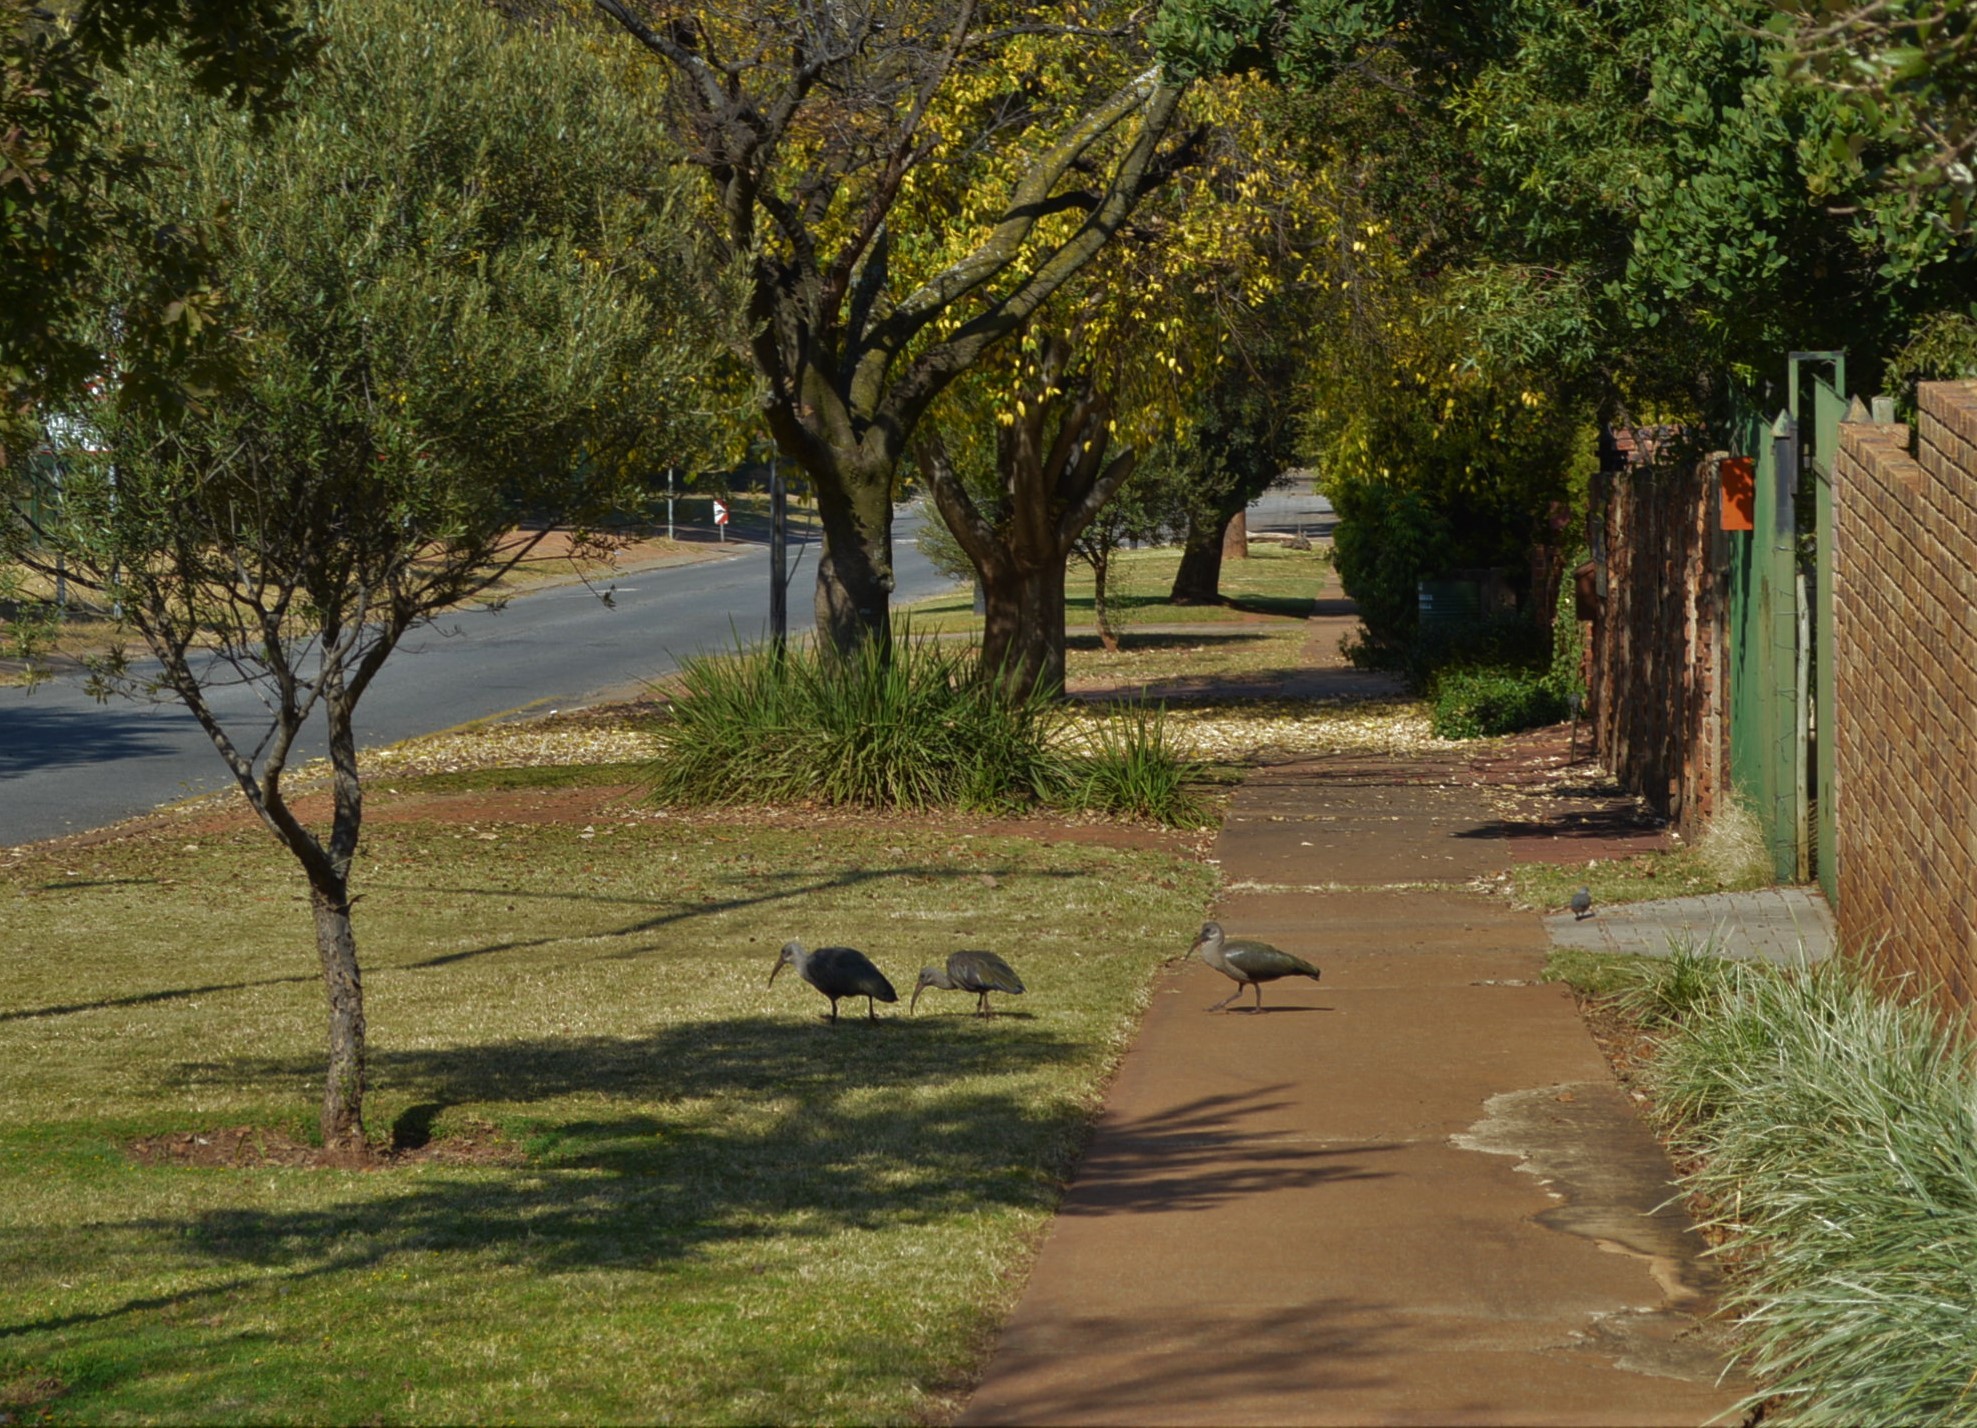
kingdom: Animalia
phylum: Chordata
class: Aves
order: Pelecaniformes
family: Threskiornithidae
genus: Bostrychia
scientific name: Bostrychia hagedash
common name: Hadada ibis
